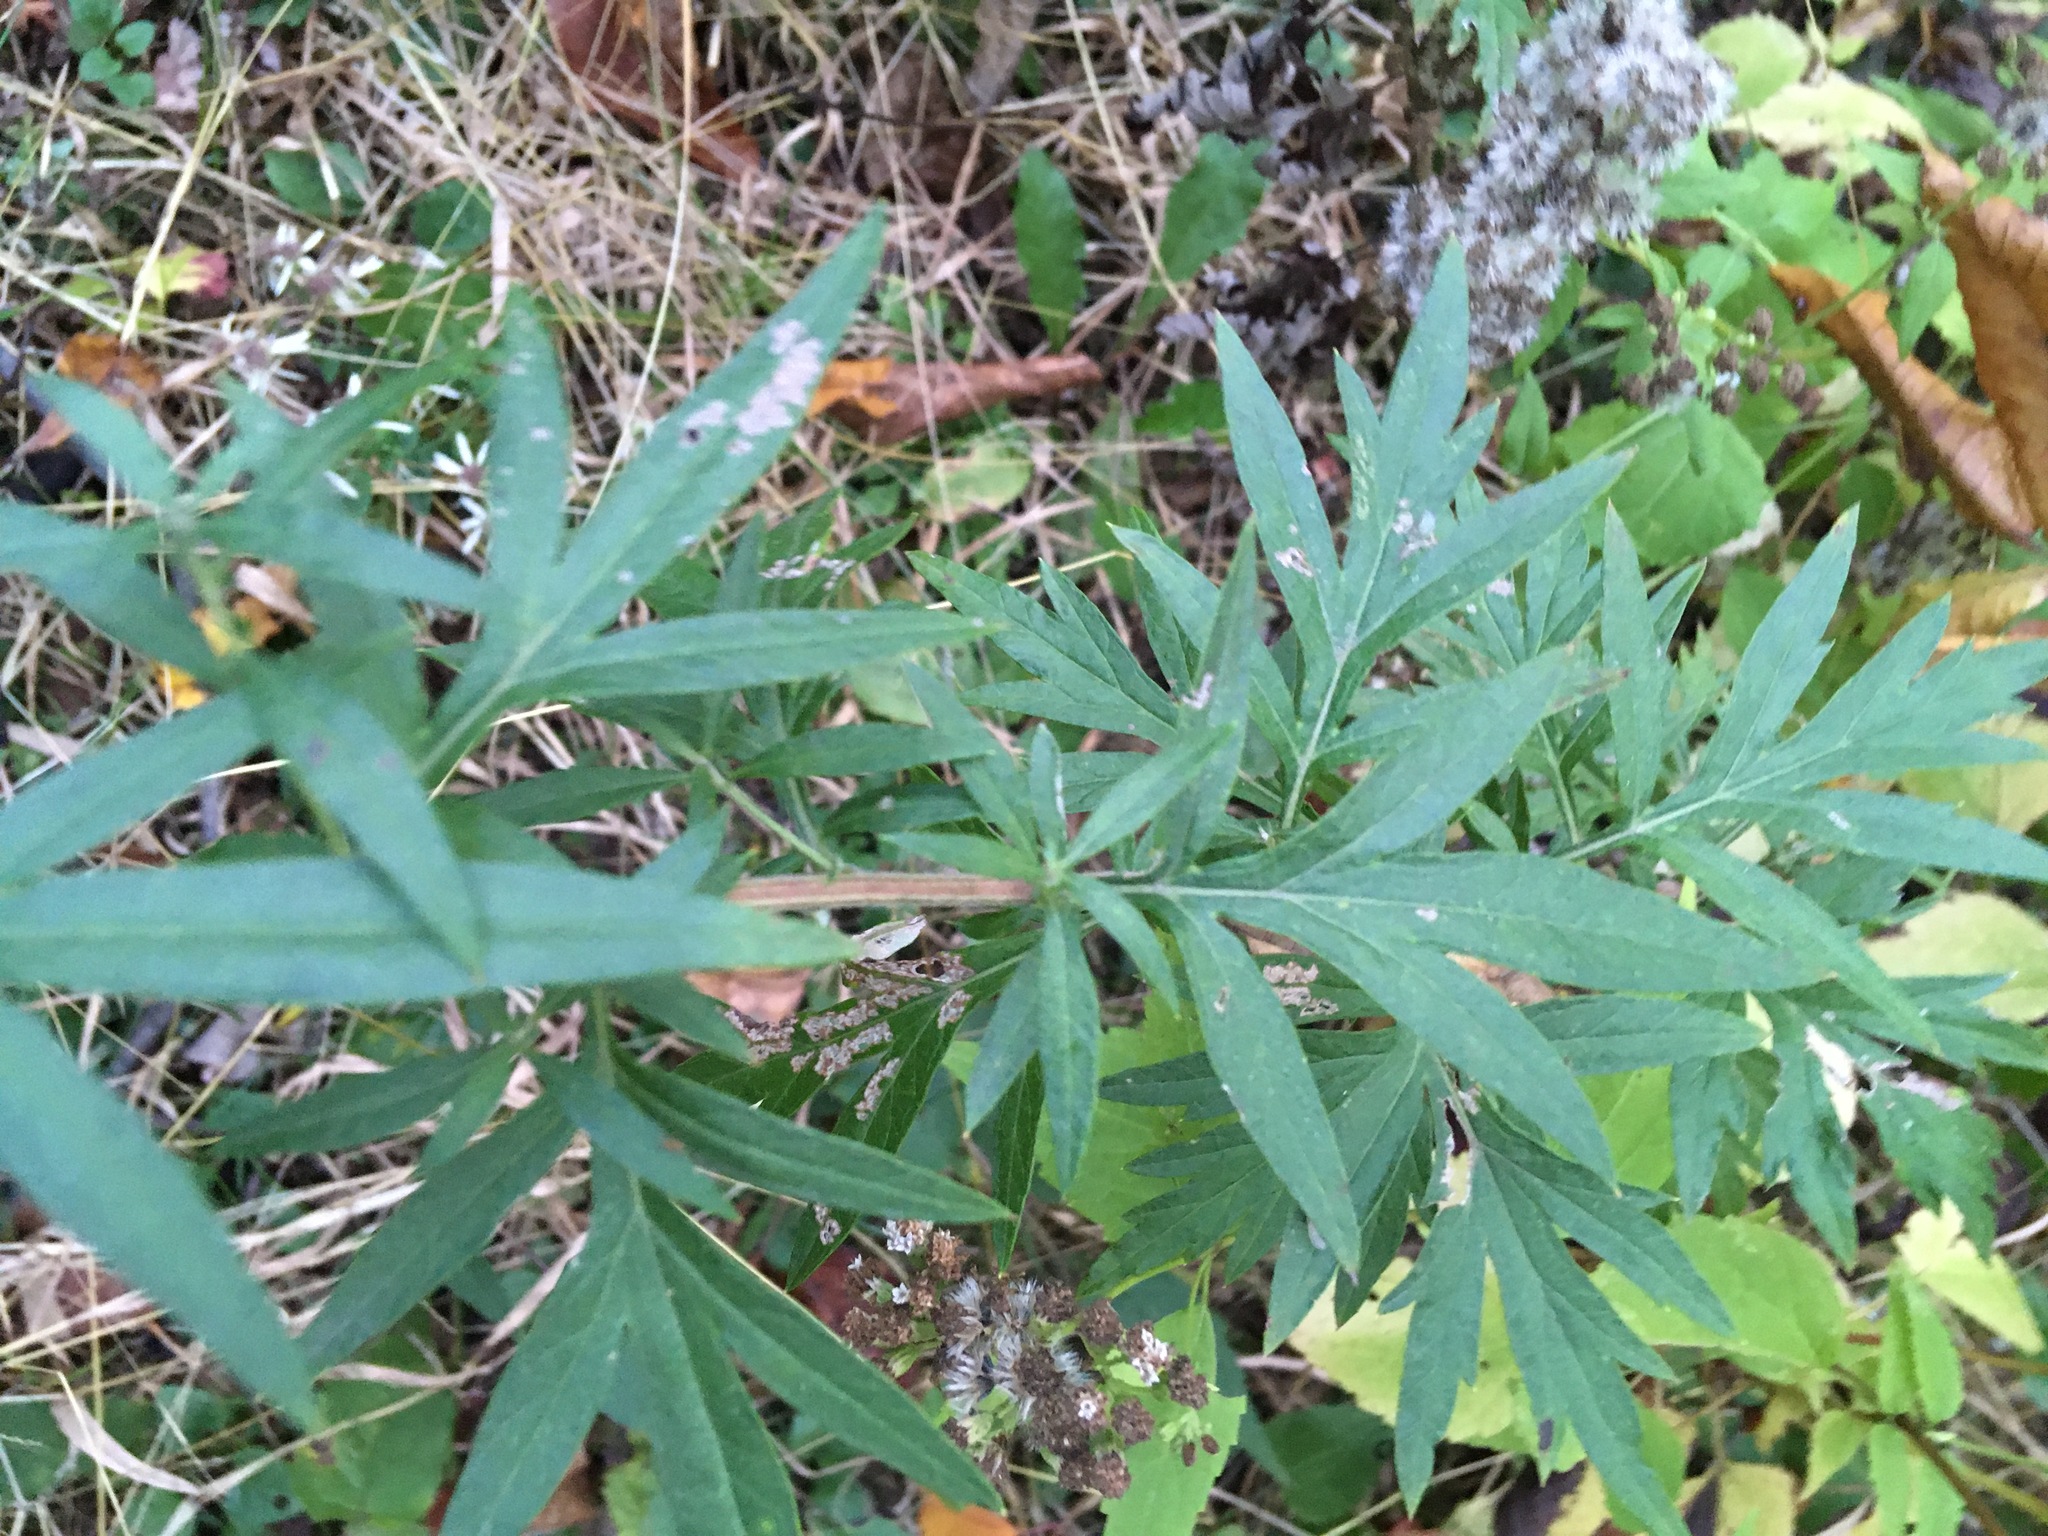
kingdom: Plantae
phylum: Tracheophyta
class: Magnoliopsida
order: Asterales
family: Asteraceae
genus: Artemisia
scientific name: Artemisia vulgaris
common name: Mugwort
